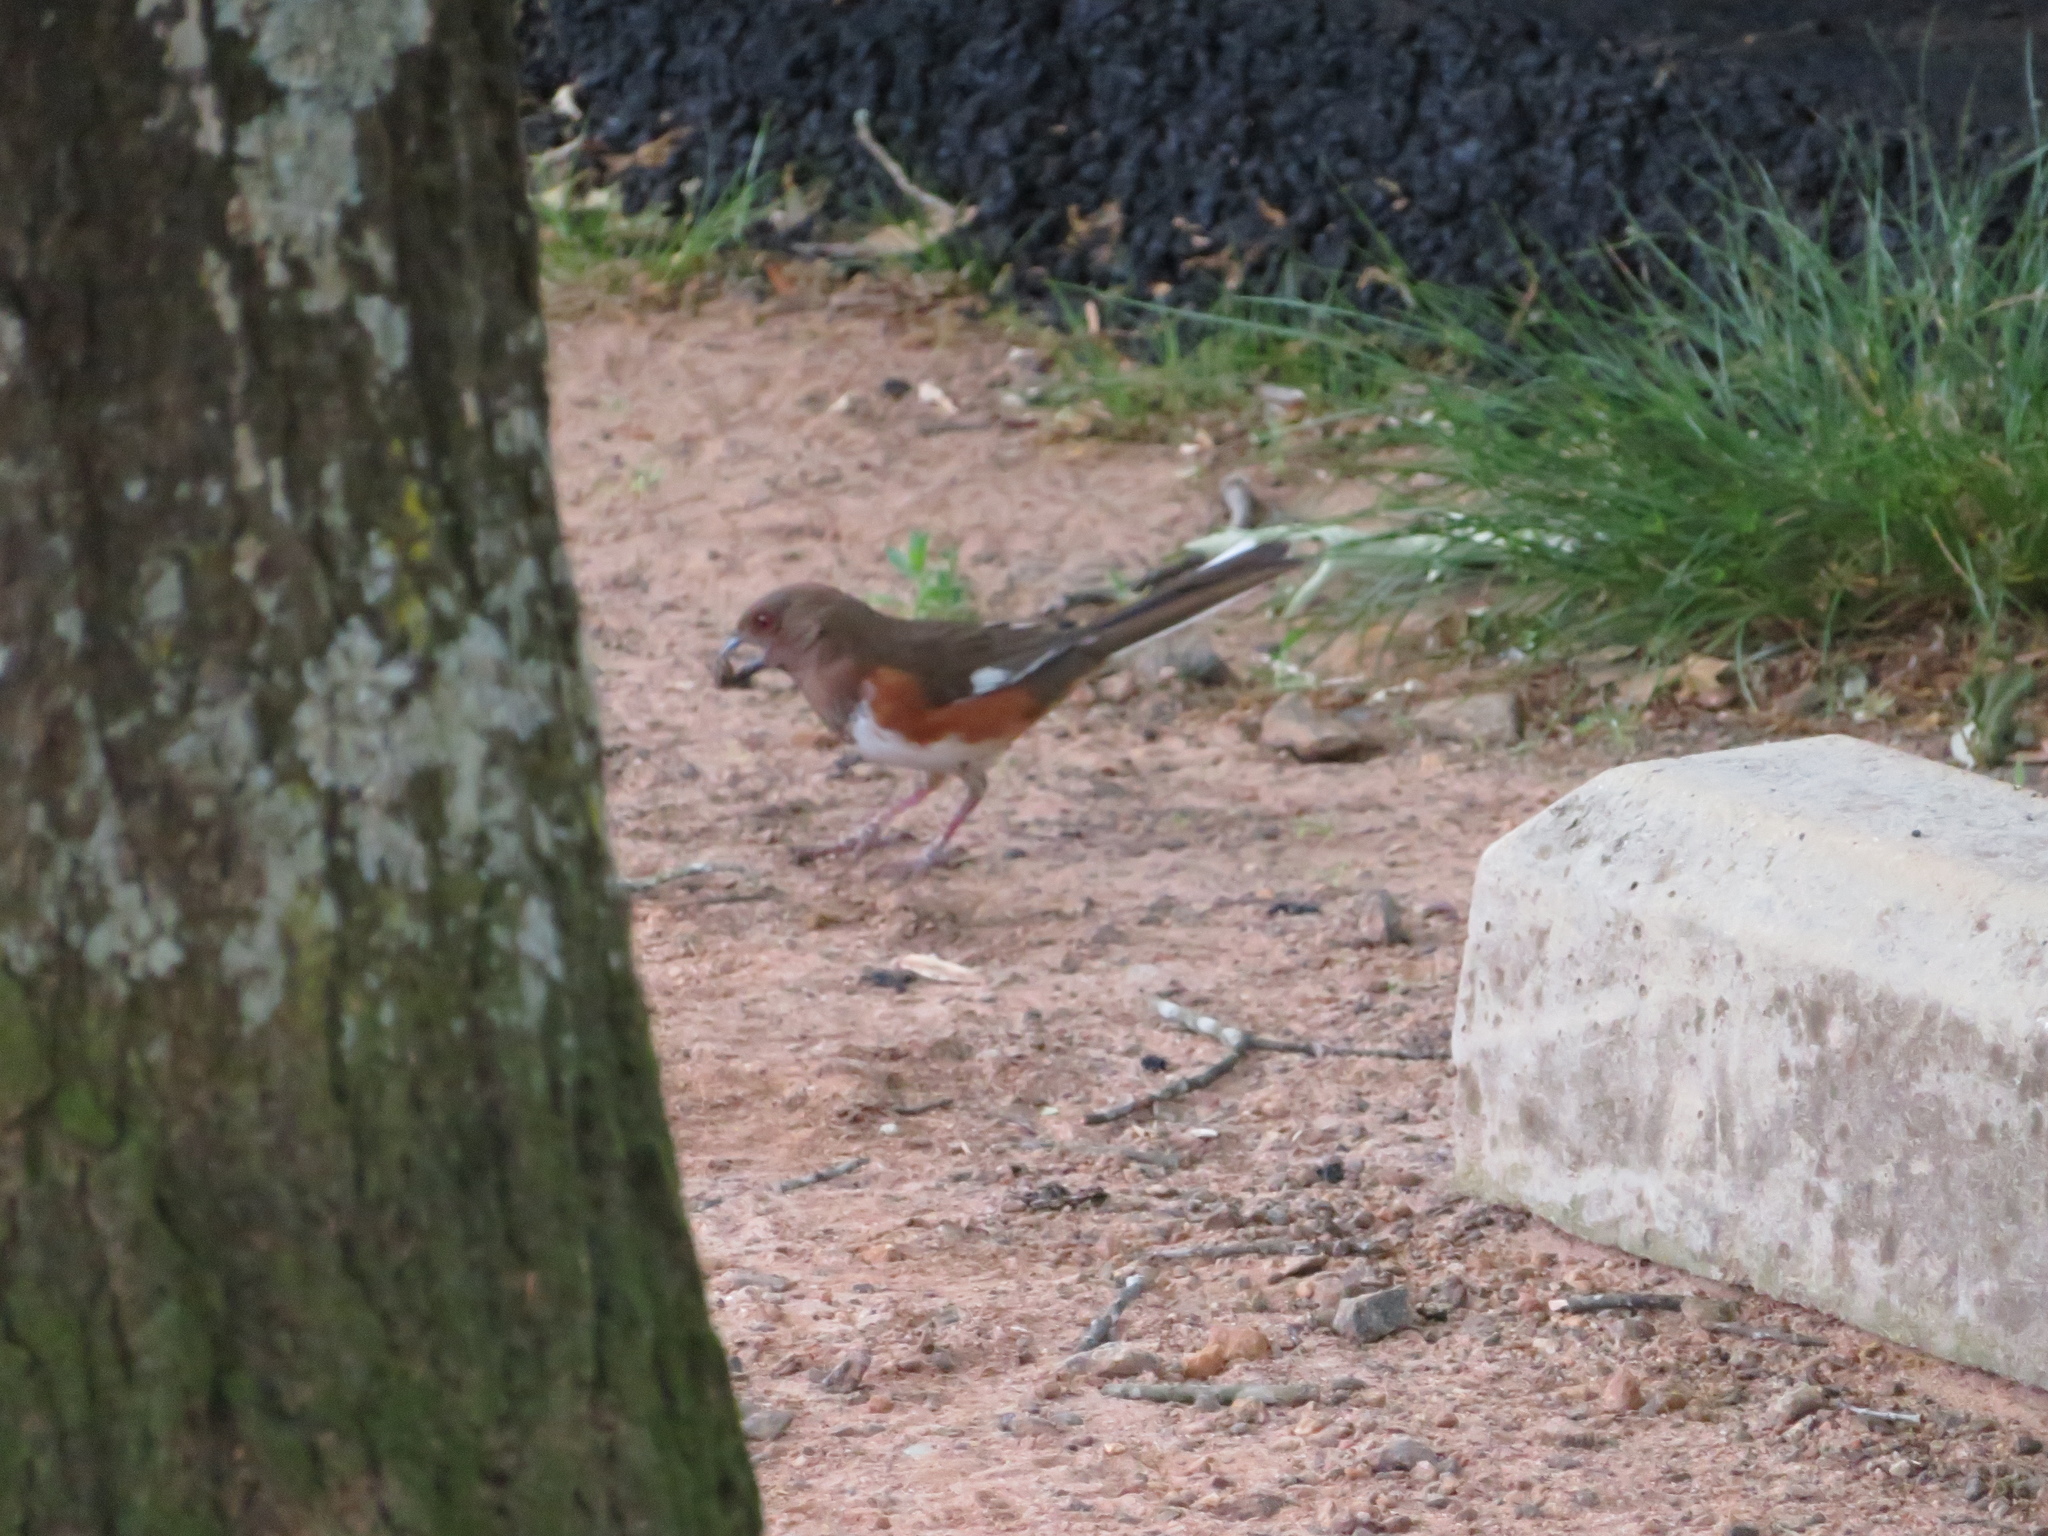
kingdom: Animalia
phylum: Chordata
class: Aves
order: Passeriformes
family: Passerellidae
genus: Pipilo
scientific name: Pipilo erythrophthalmus
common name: Eastern towhee
